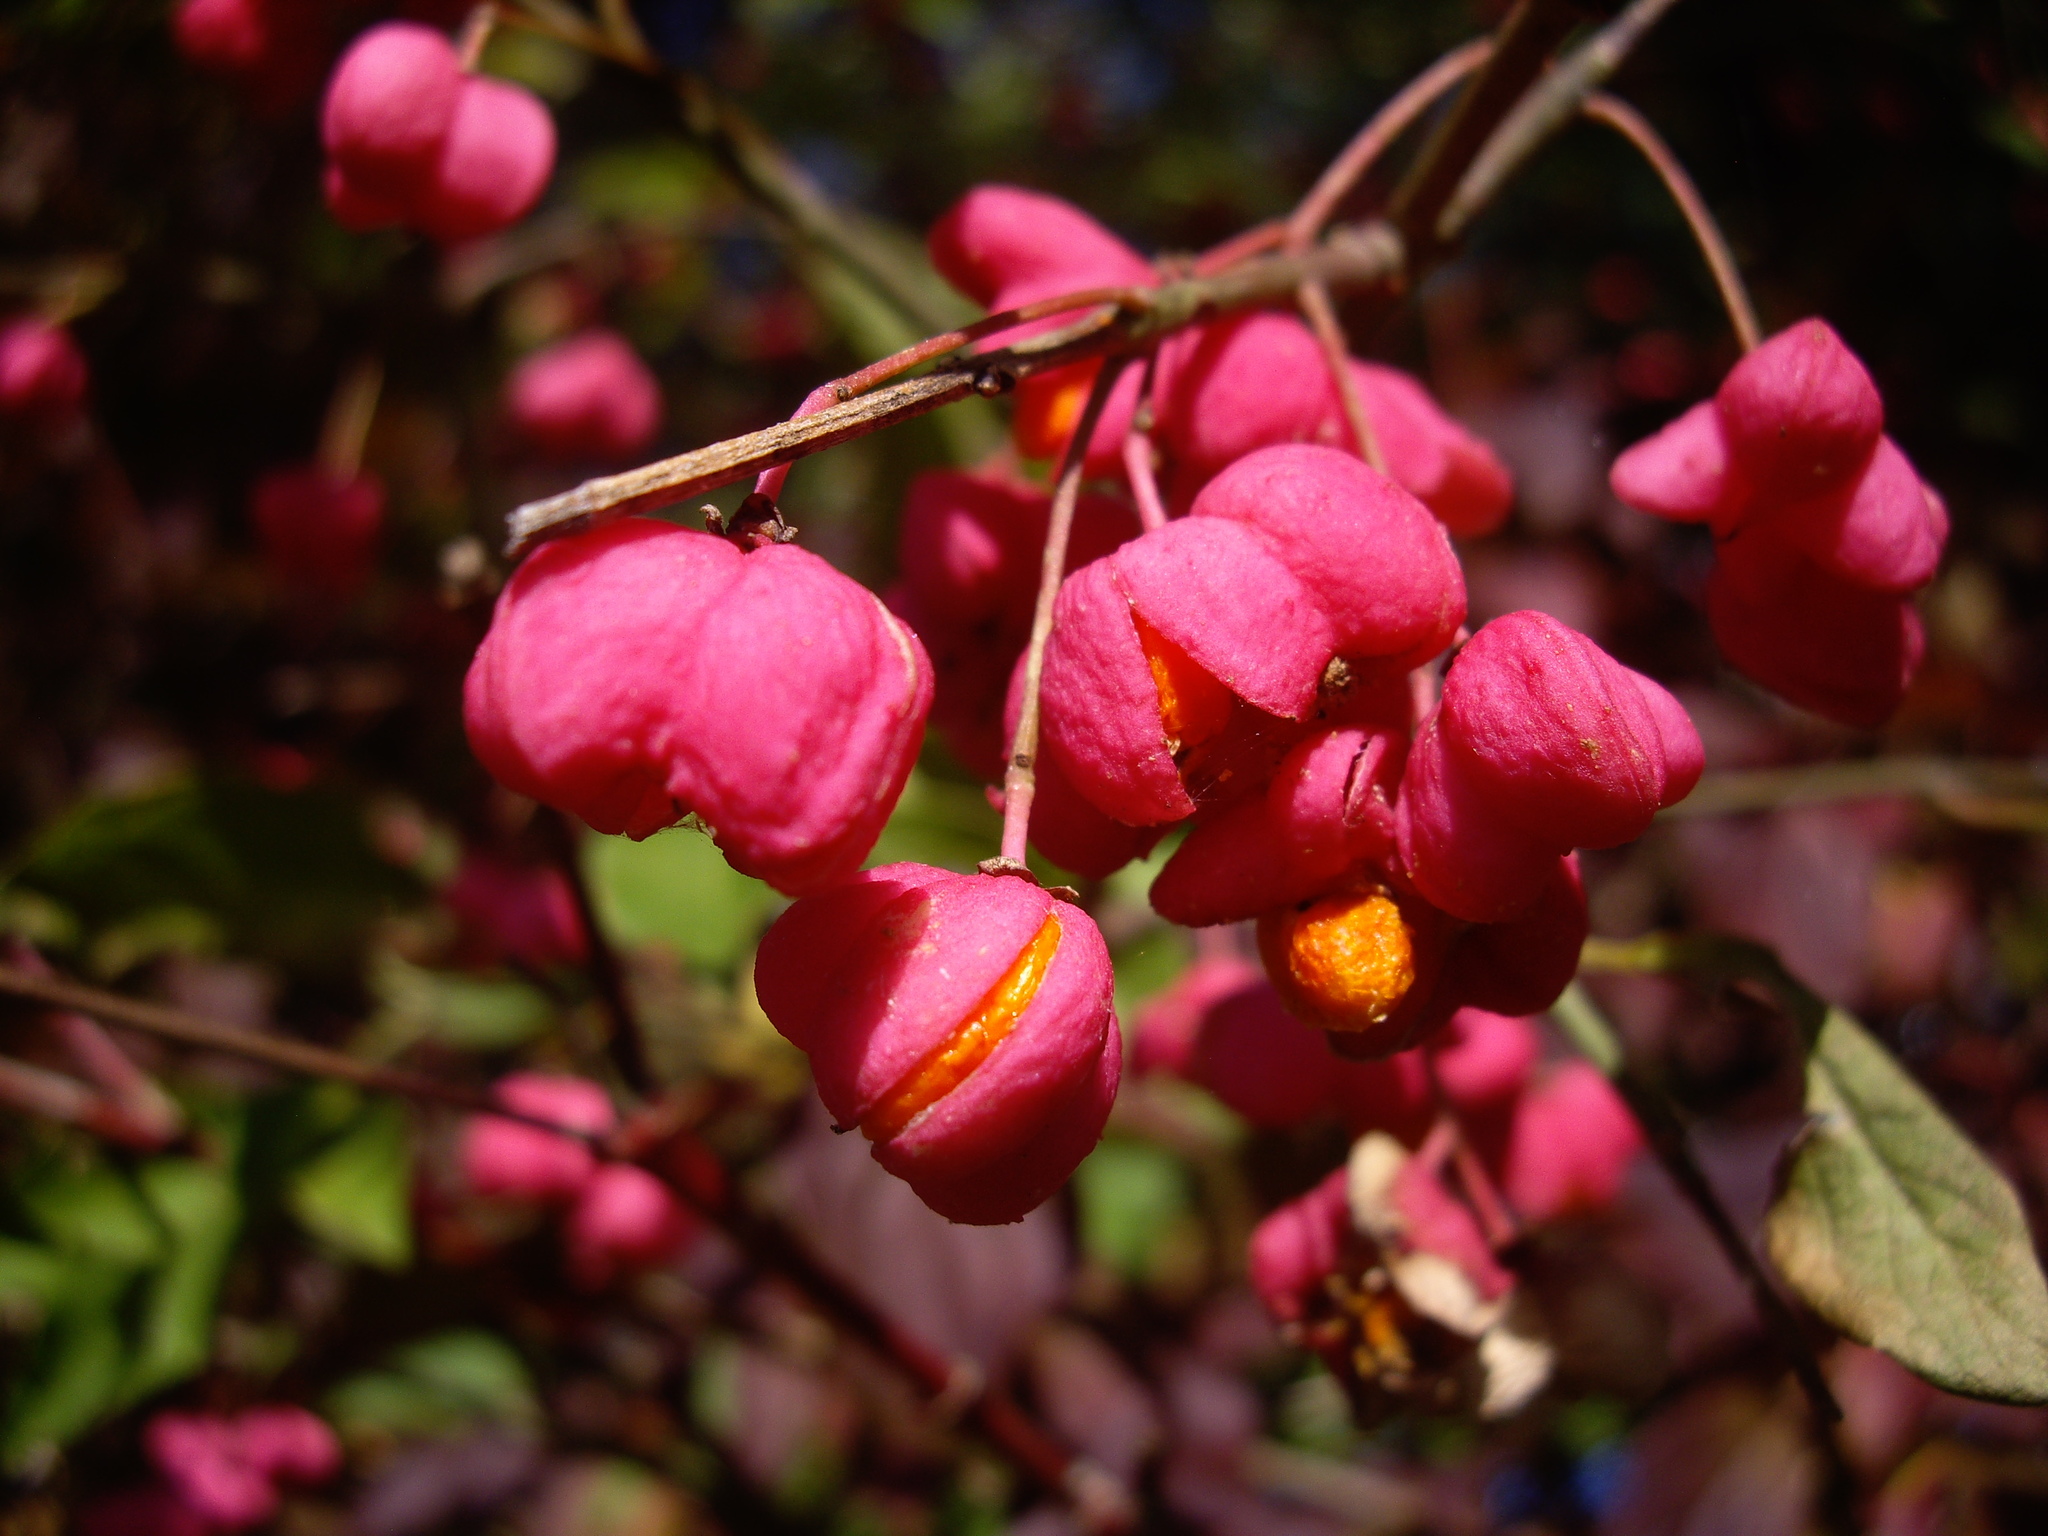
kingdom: Plantae
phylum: Tracheophyta
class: Magnoliopsida
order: Celastrales
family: Celastraceae
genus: Euonymus
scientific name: Euonymus europaeus
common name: Spindle
